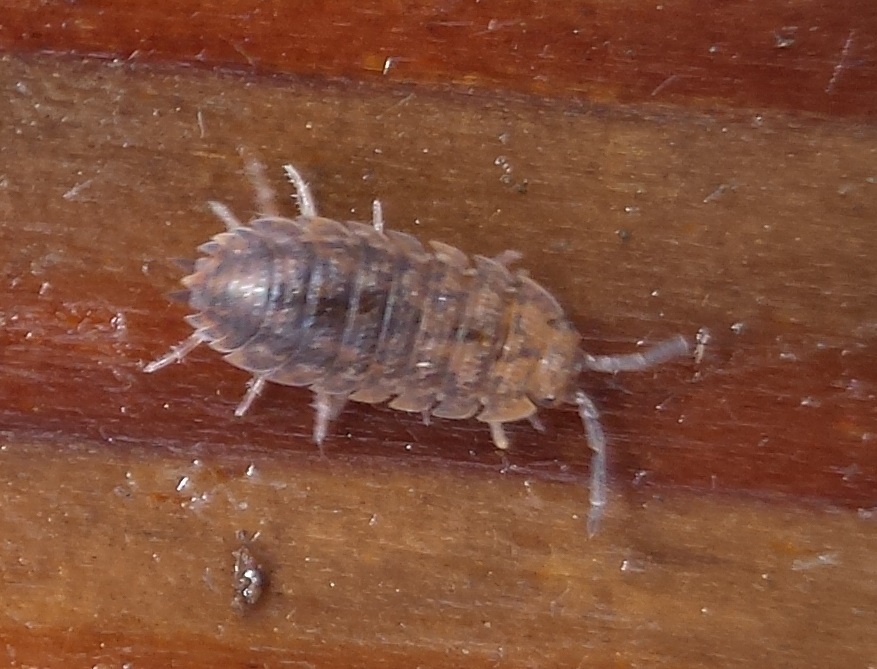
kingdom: Animalia
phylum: Arthropoda
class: Malacostraca
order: Isopoda
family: Porcellionidae
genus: Porcellio
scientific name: Porcellio scaber
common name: Common rough woodlouse
